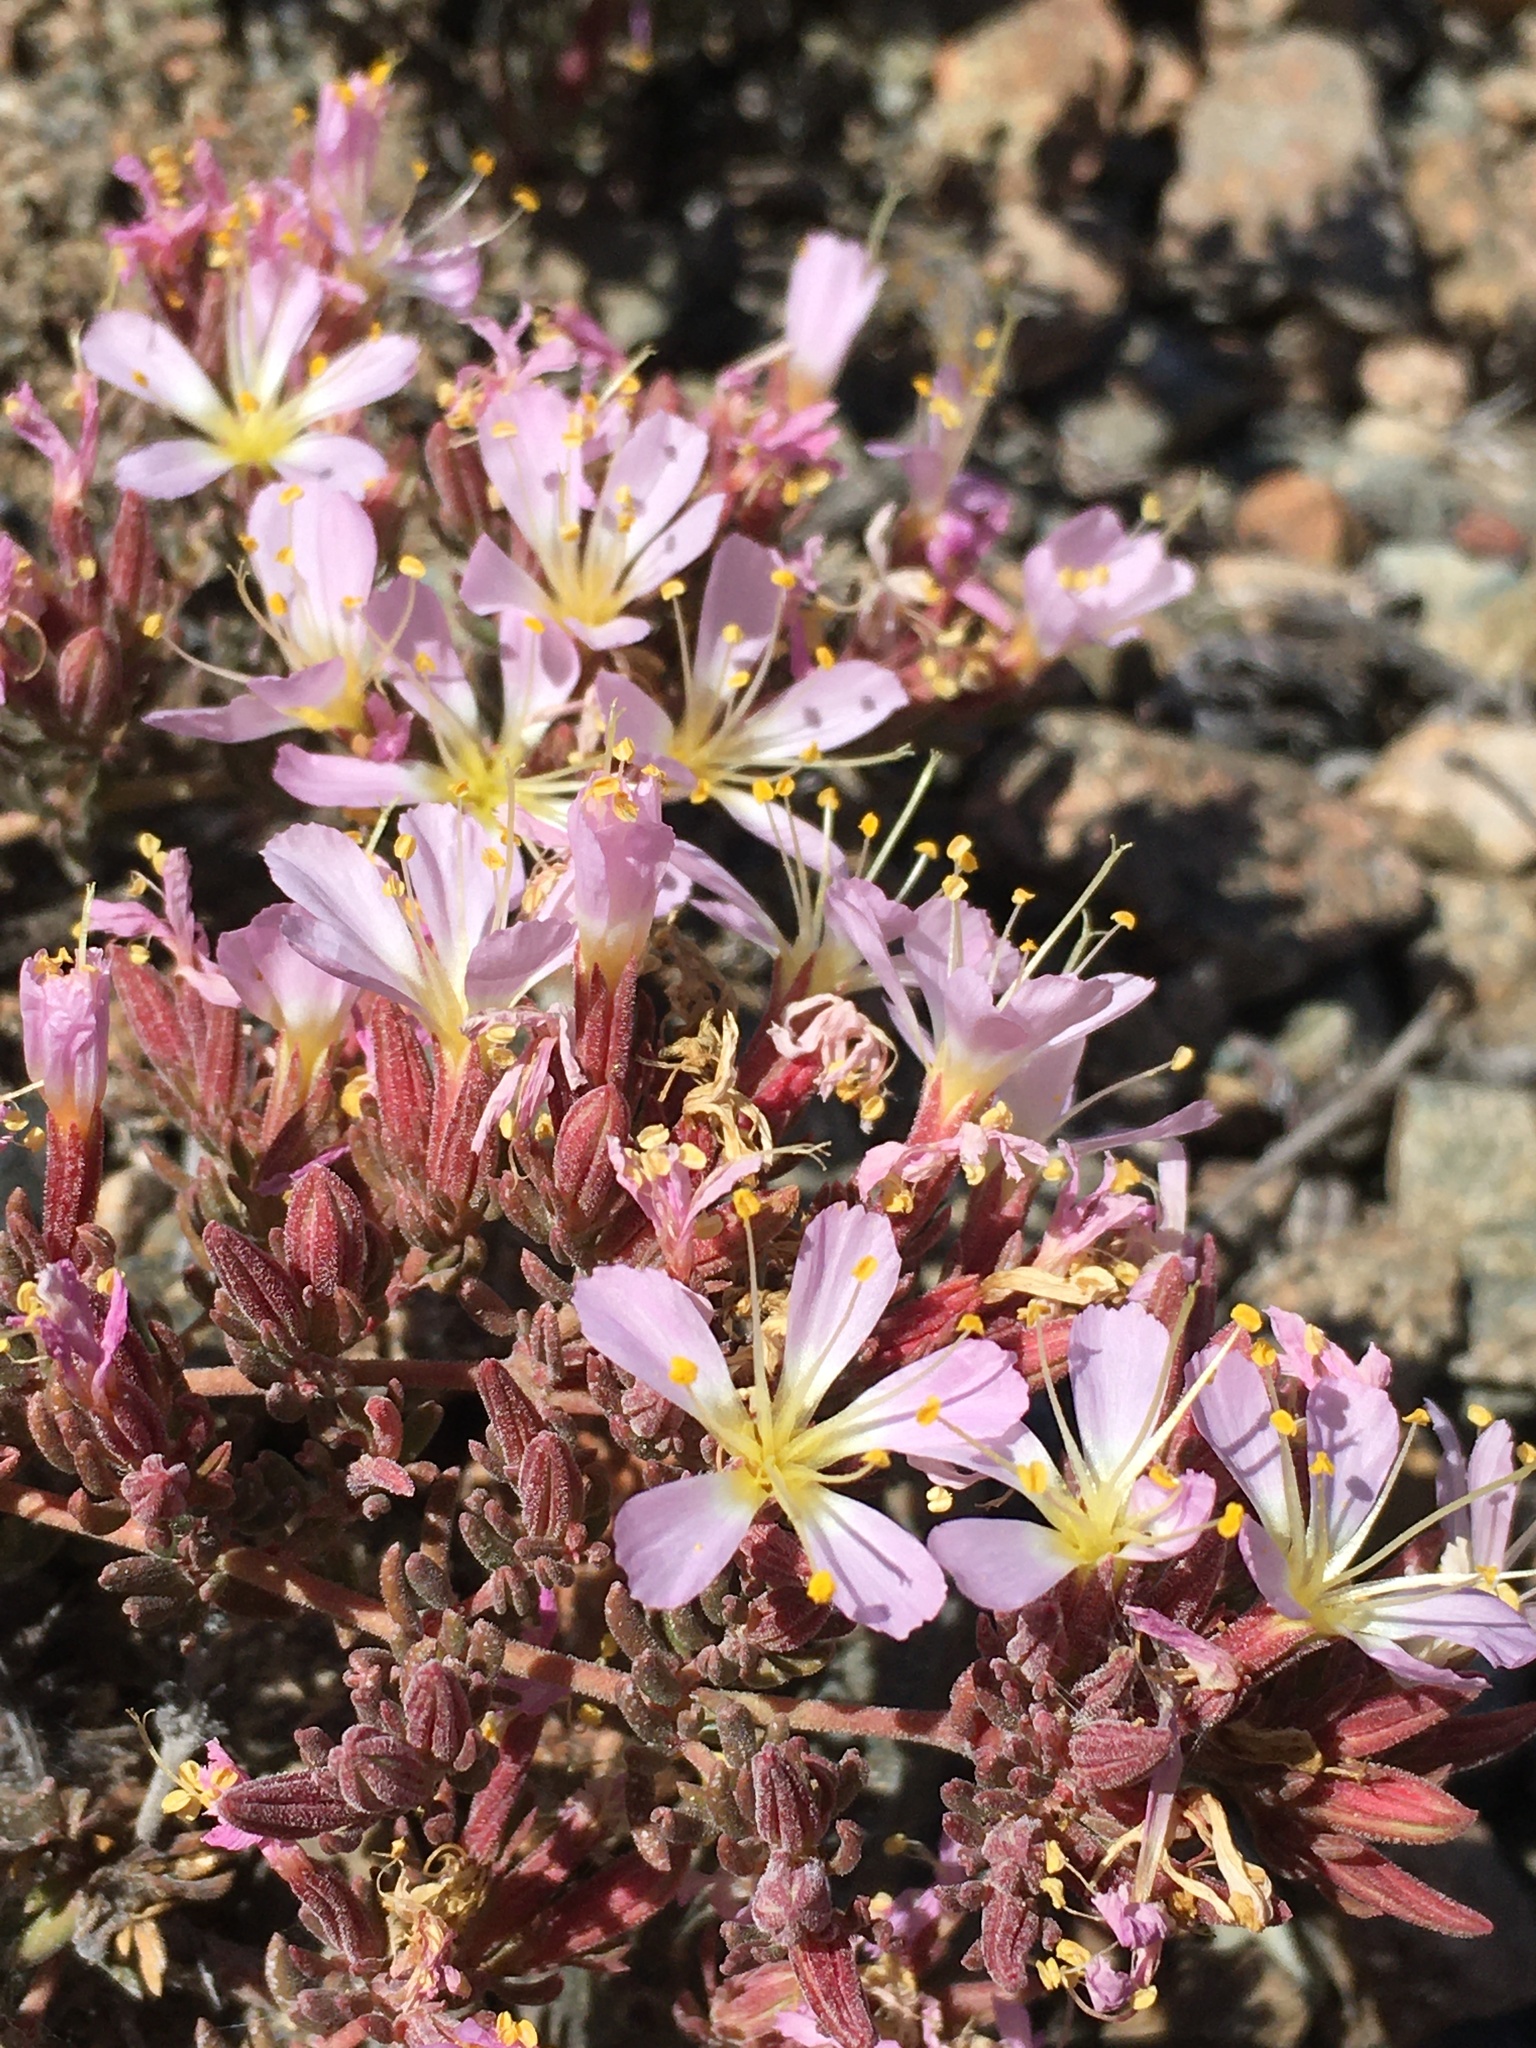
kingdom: Plantae
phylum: Tracheophyta
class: Magnoliopsida
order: Caryophyllales
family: Frankeniaceae
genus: Frankenia
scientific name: Frankenia chilensis
